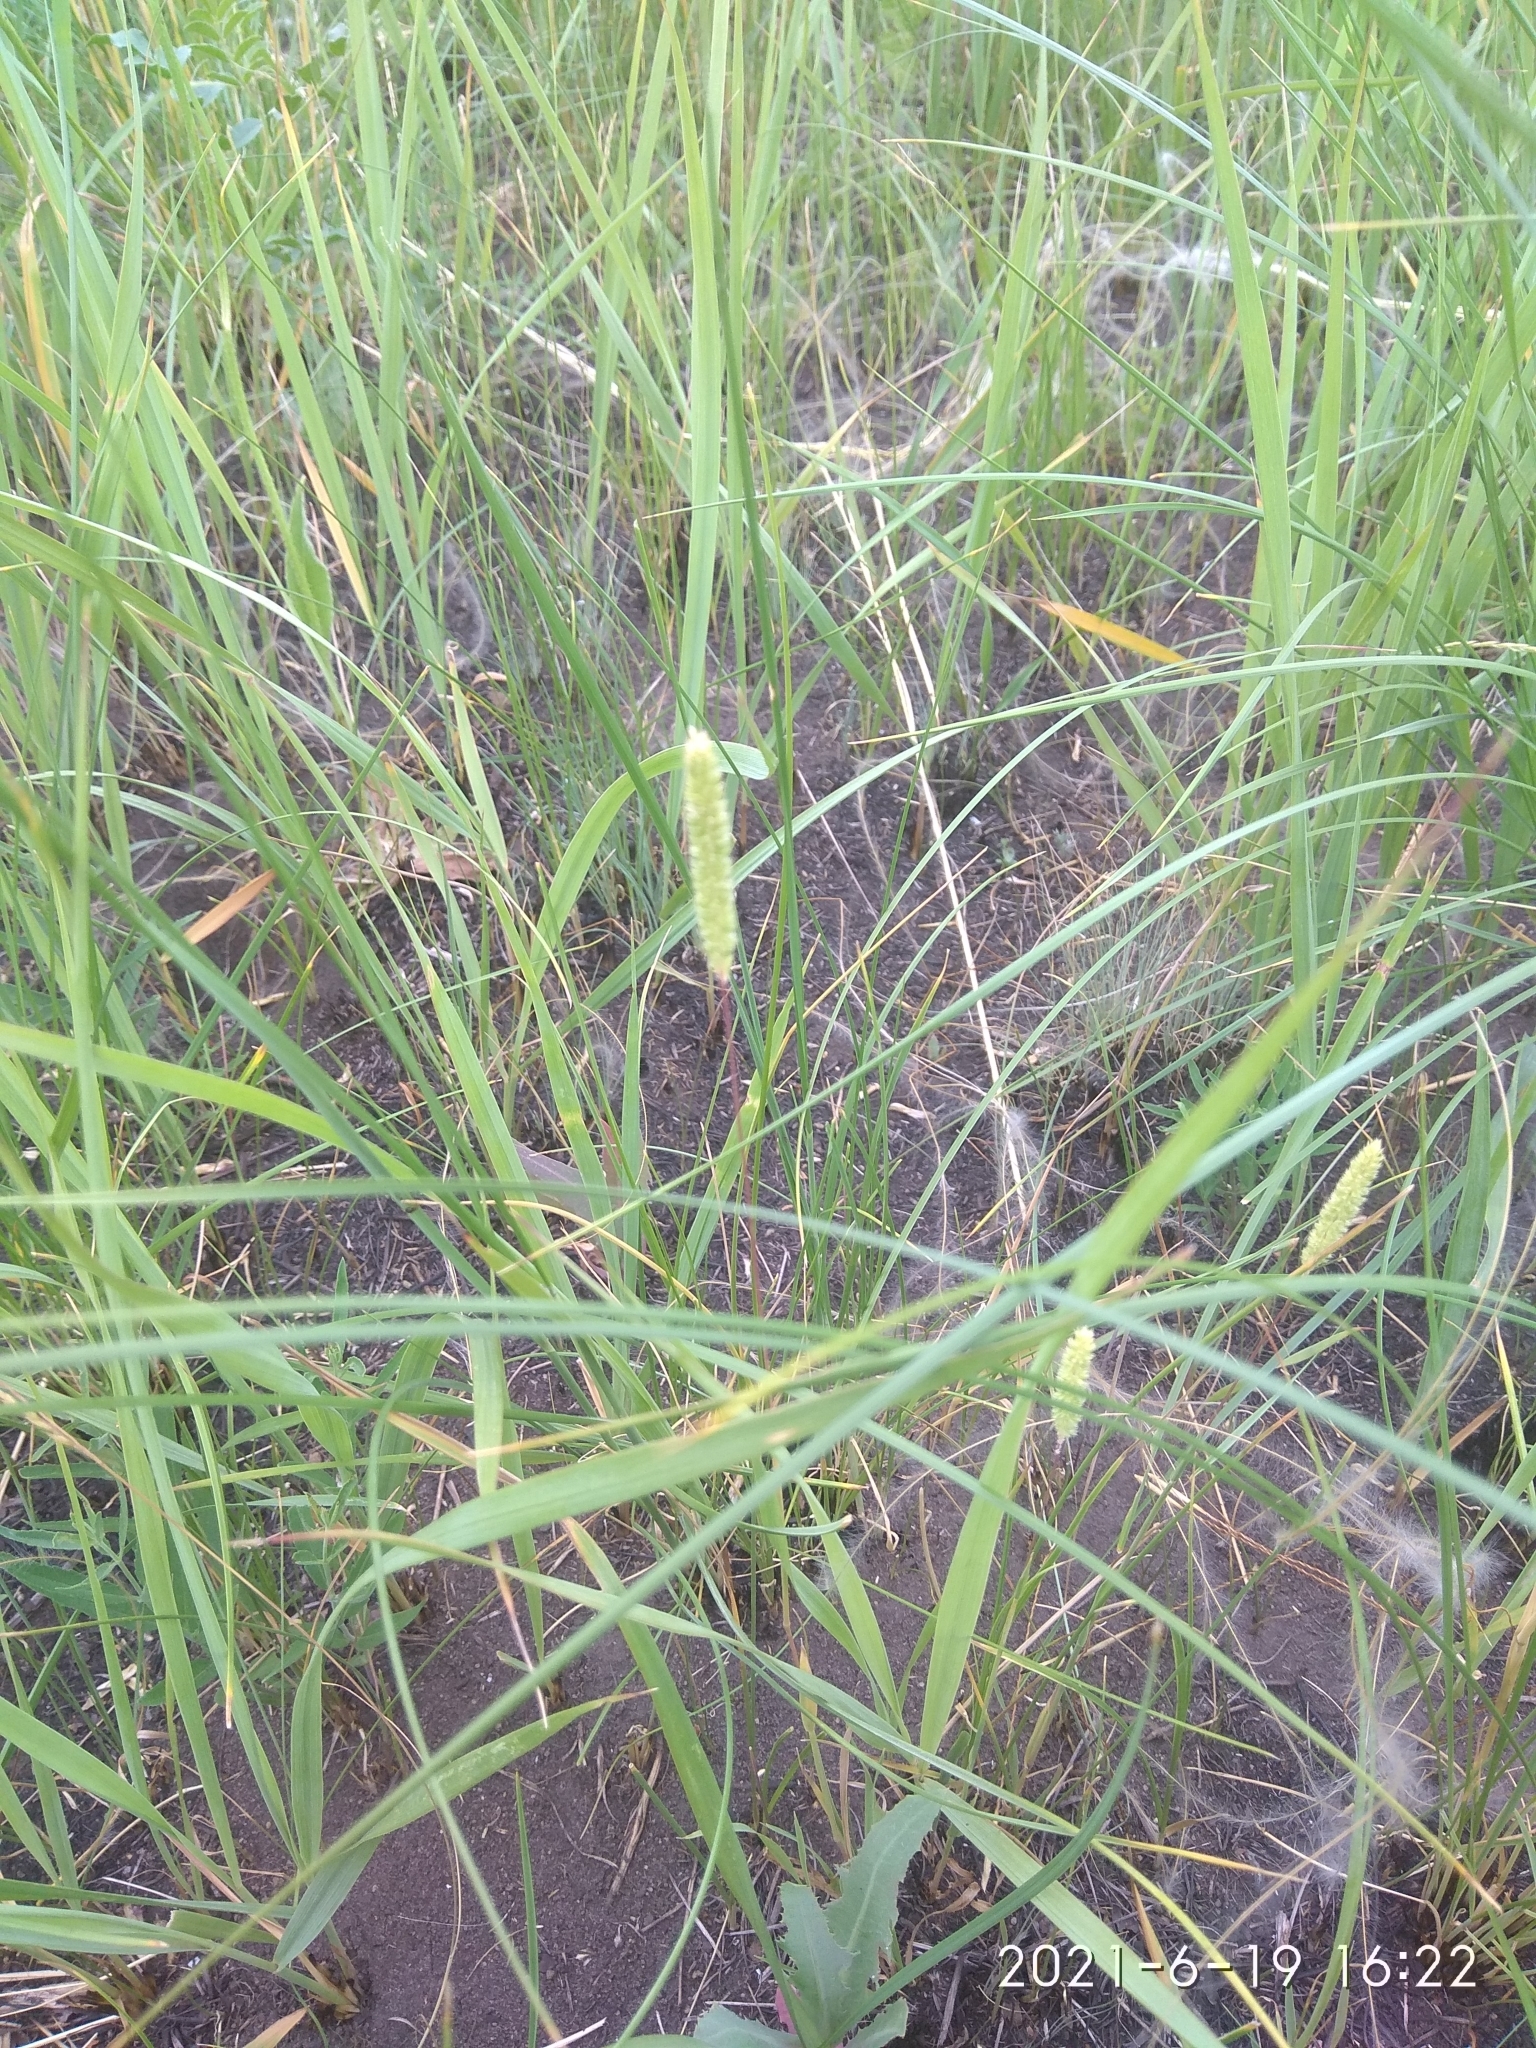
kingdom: Plantae
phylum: Tracheophyta
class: Liliopsida
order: Poales
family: Poaceae
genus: Phleum
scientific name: Phleum phleoides
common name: Purple-stem cat's-tail
